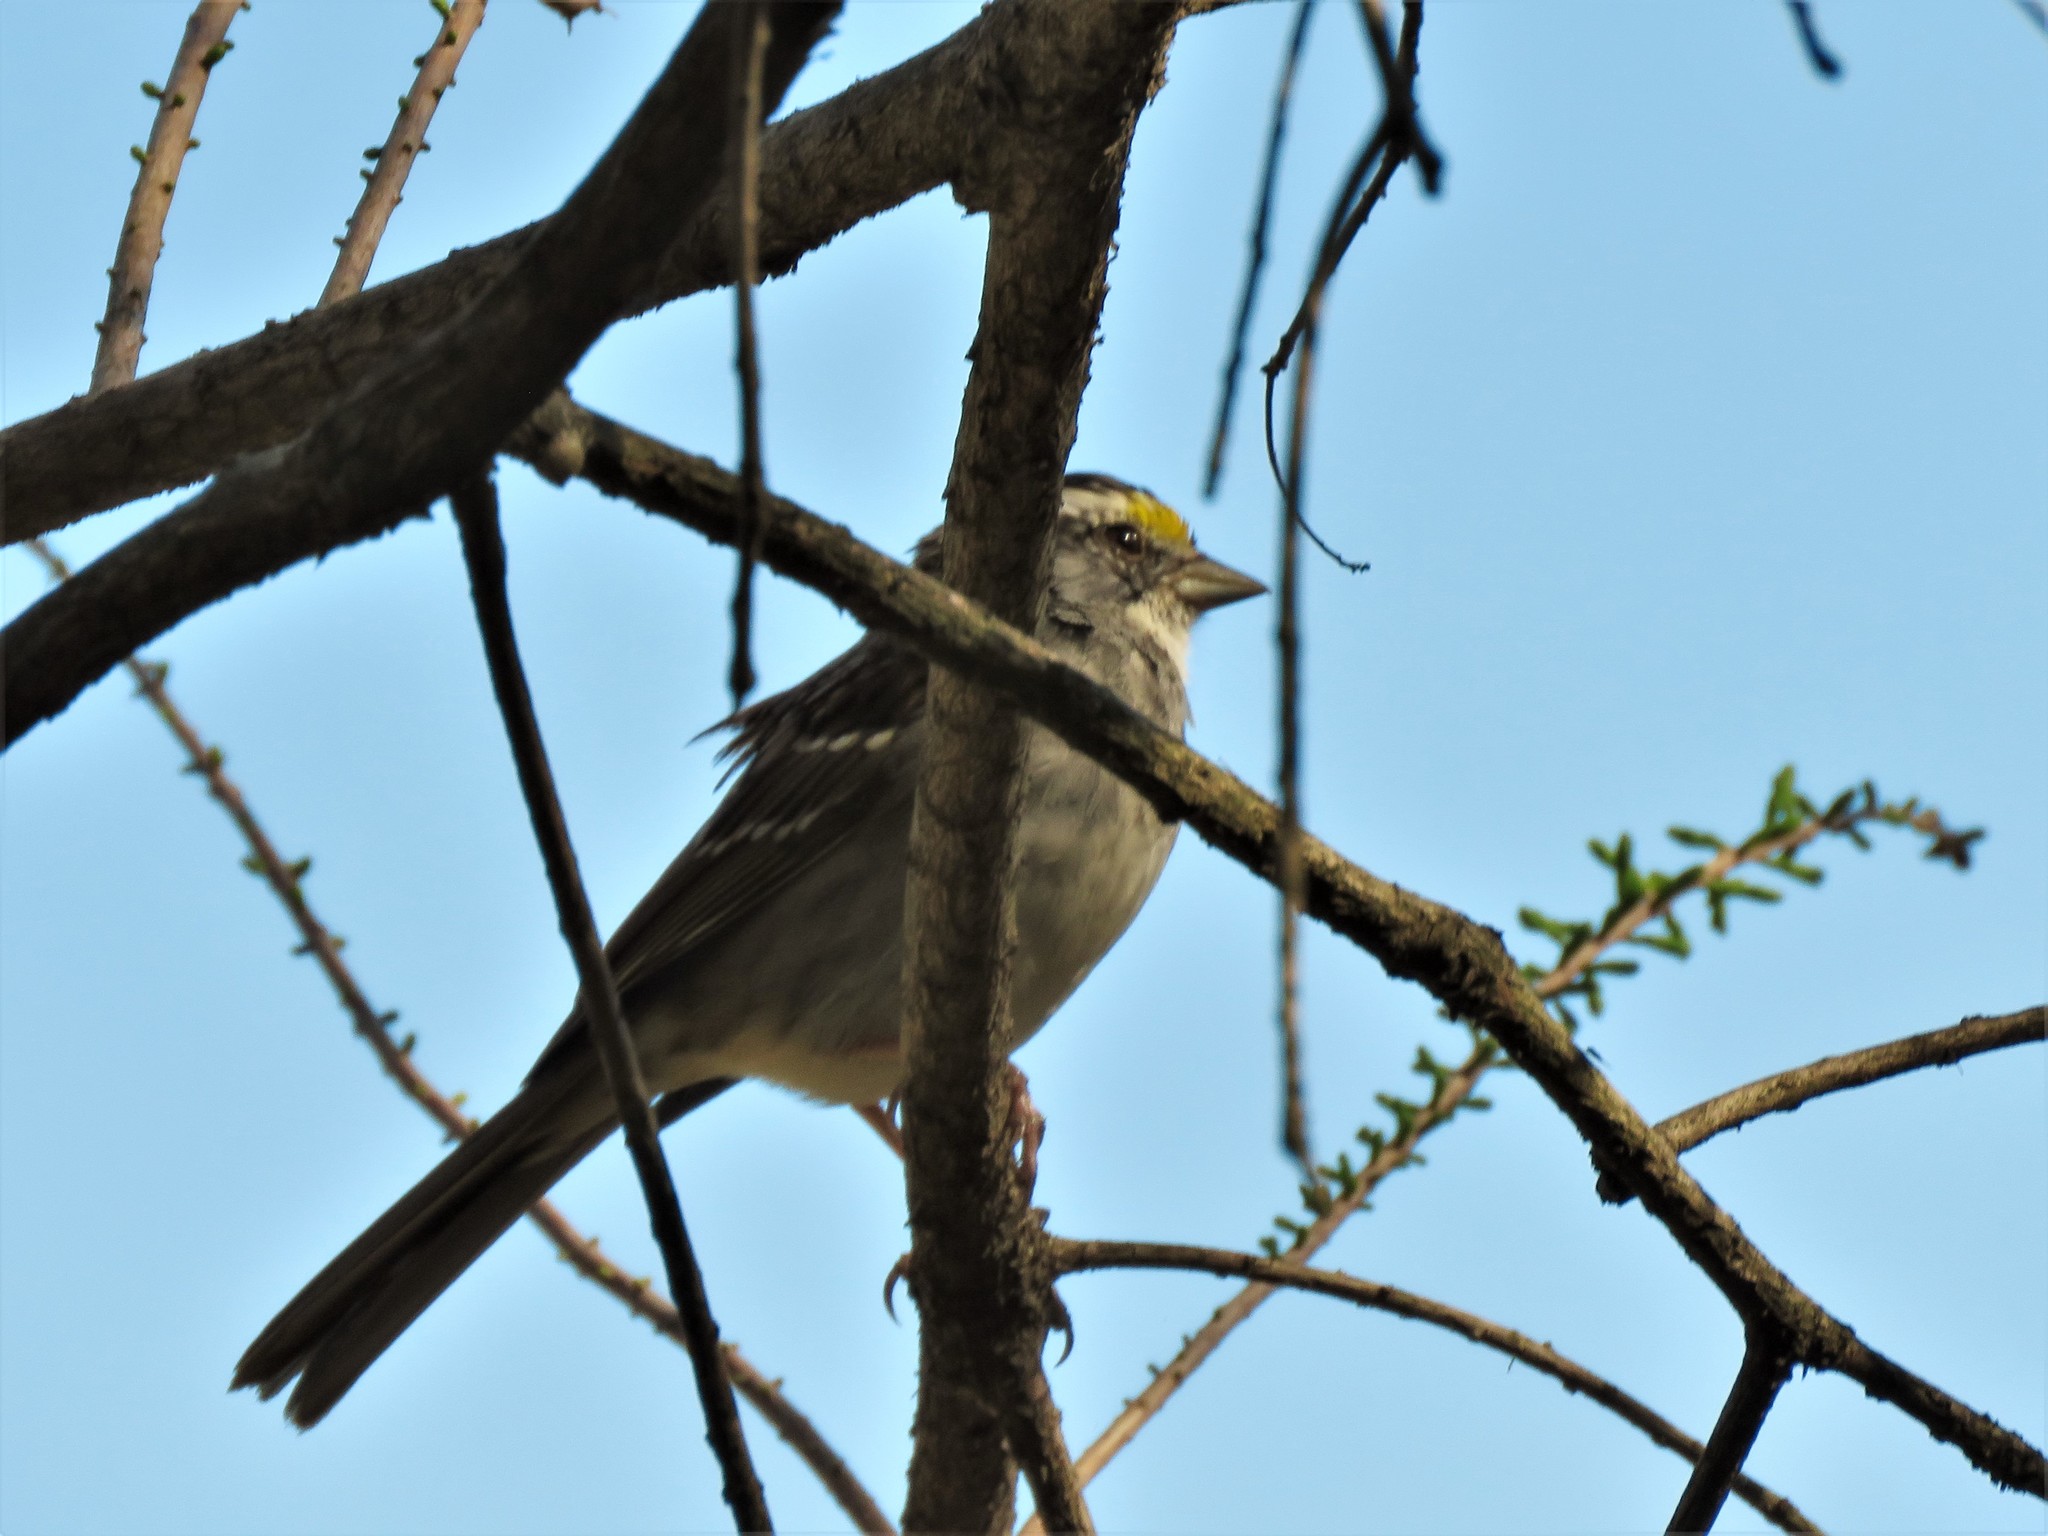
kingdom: Animalia
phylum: Chordata
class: Aves
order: Passeriformes
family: Passerellidae
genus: Zonotrichia
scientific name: Zonotrichia albicollis
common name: White-throated sparrow
